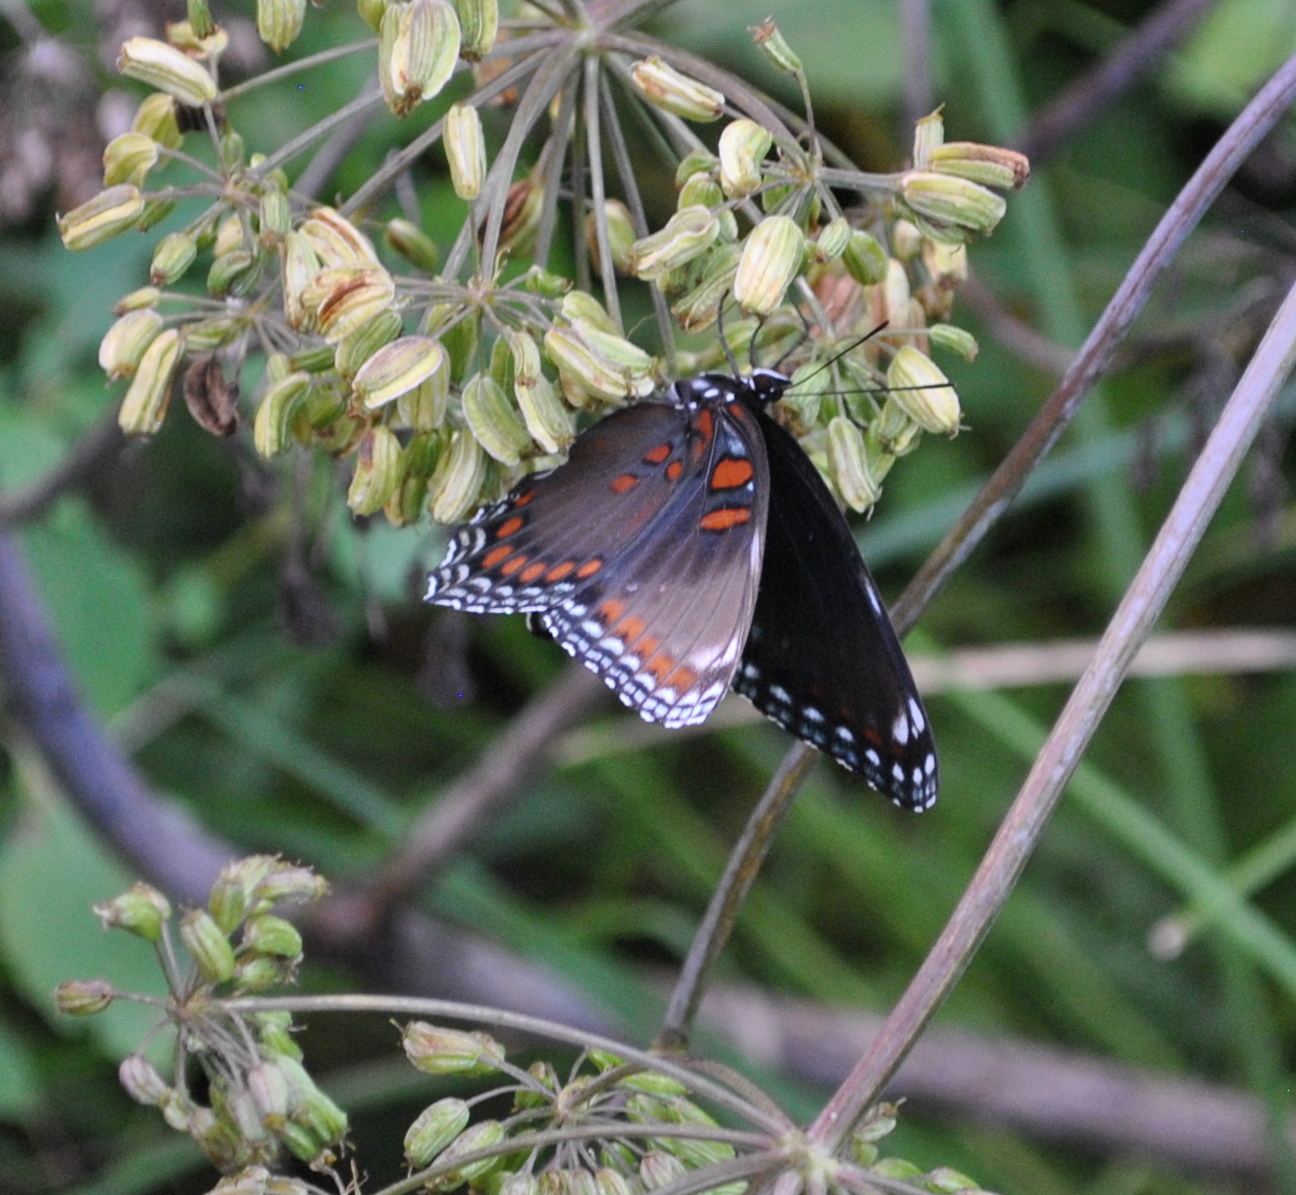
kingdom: Animalia
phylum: Arthropoda
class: Insecta
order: Lepidoptera
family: Nymphalidae
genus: Limenitis
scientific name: Limenitis astyanax
